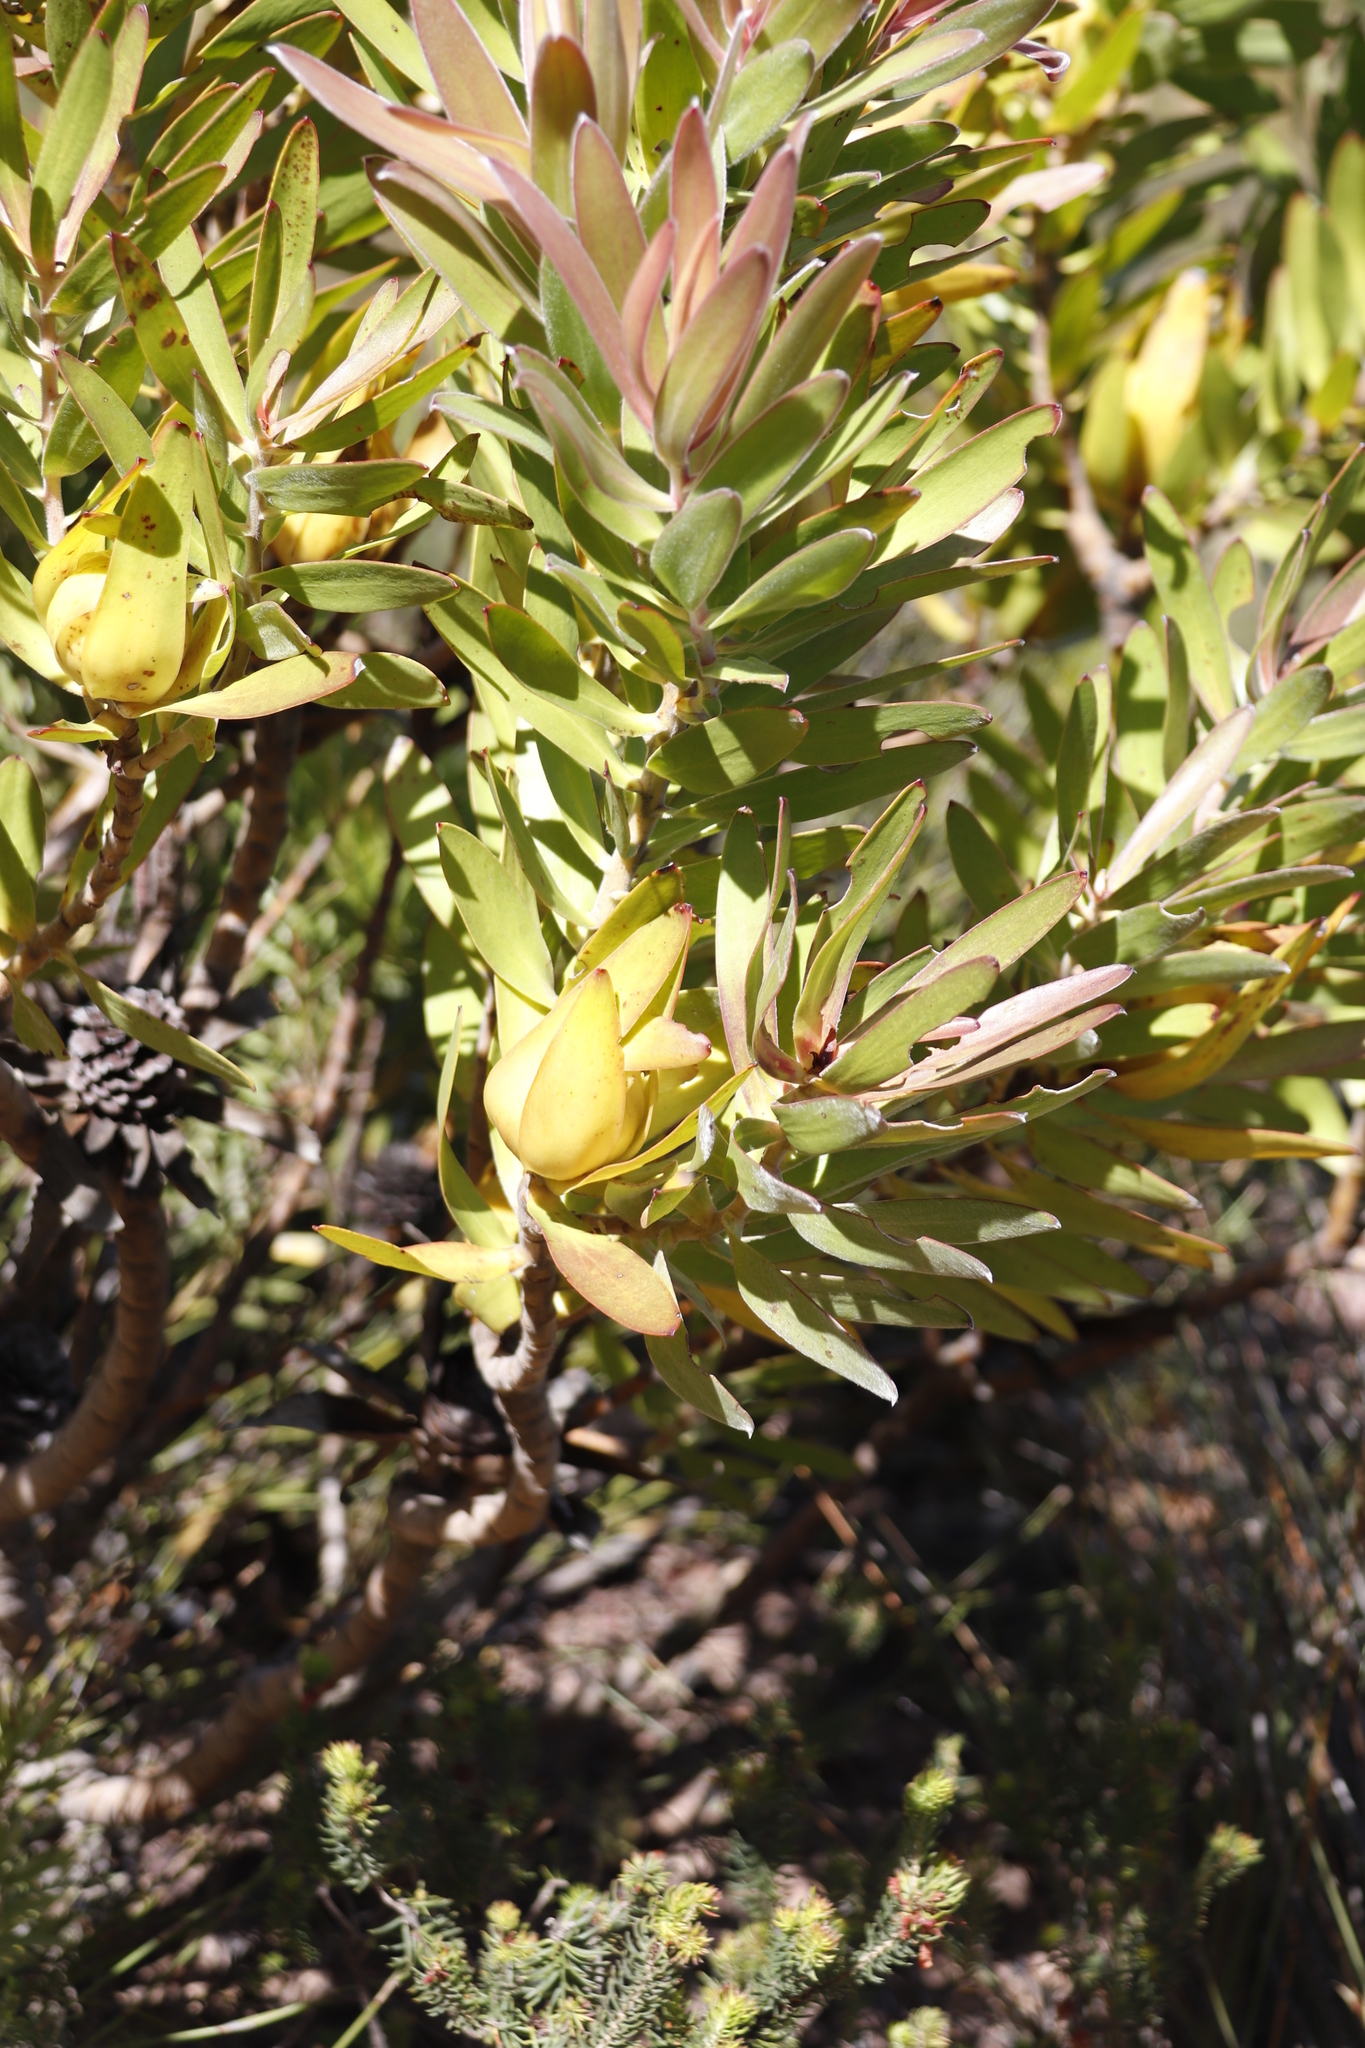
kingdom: Plantae
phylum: Tracheophyta
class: Magnoliopsida
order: Proteales
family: Proteaceae
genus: Leucadendron
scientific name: Leucadendron laureolum
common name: Golden sunshinebush
